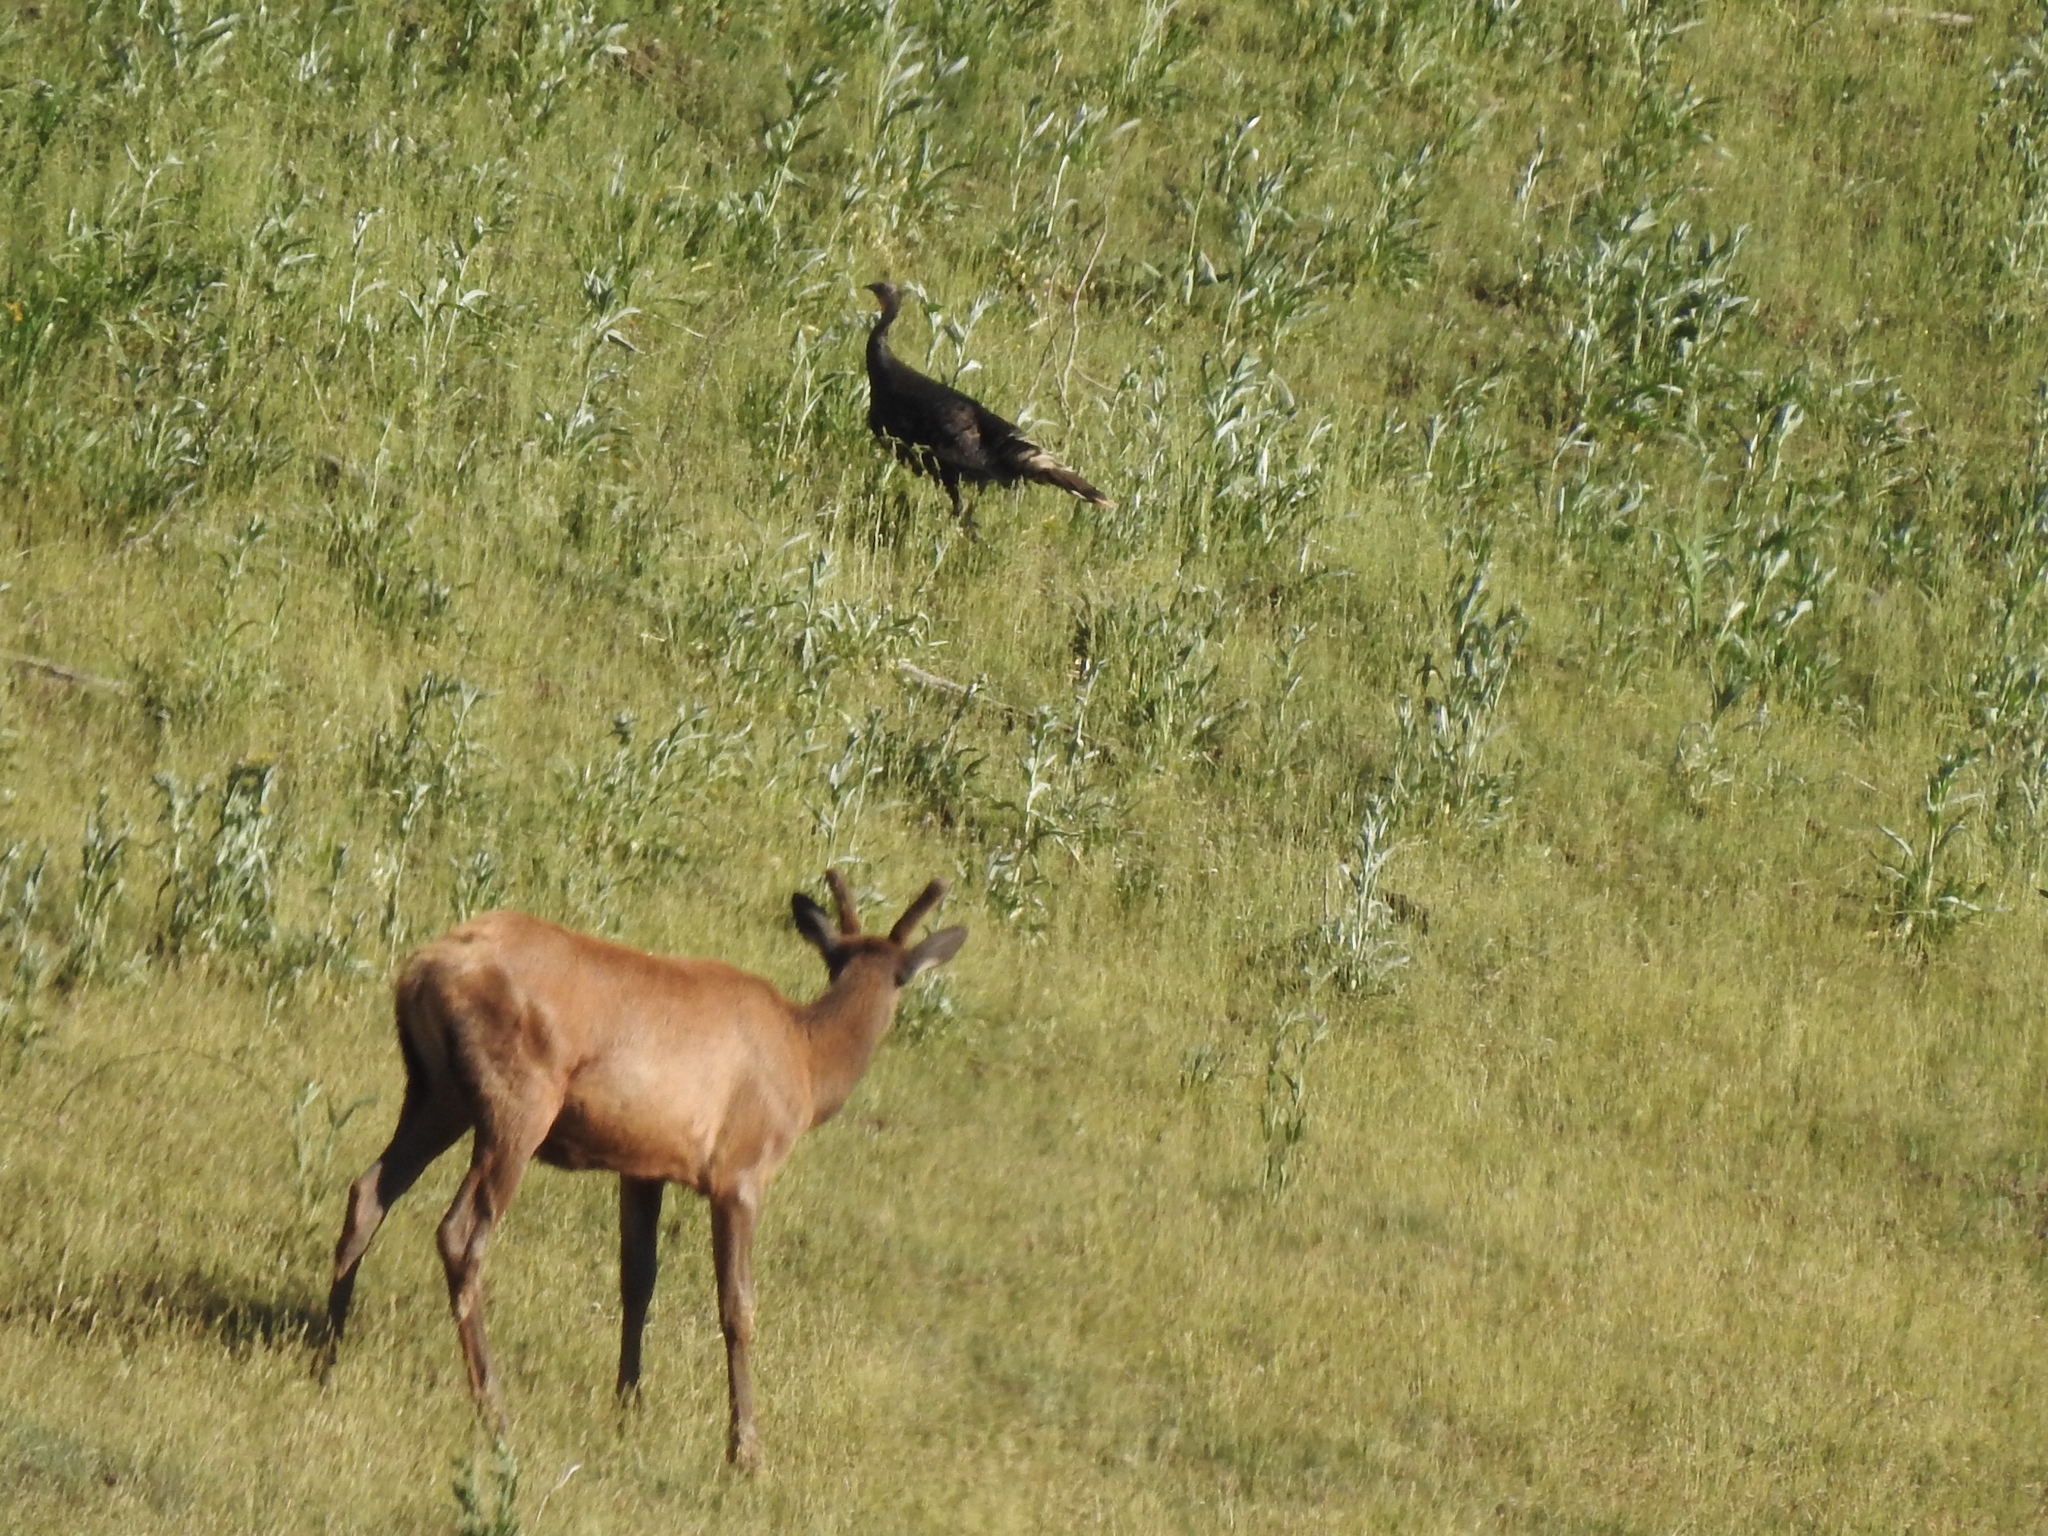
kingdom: Animalia
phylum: Chordata
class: Aves
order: Galliformes
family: Phasianidae
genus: Meleagris
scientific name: Meleagris gallopavo
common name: Wild turkey
